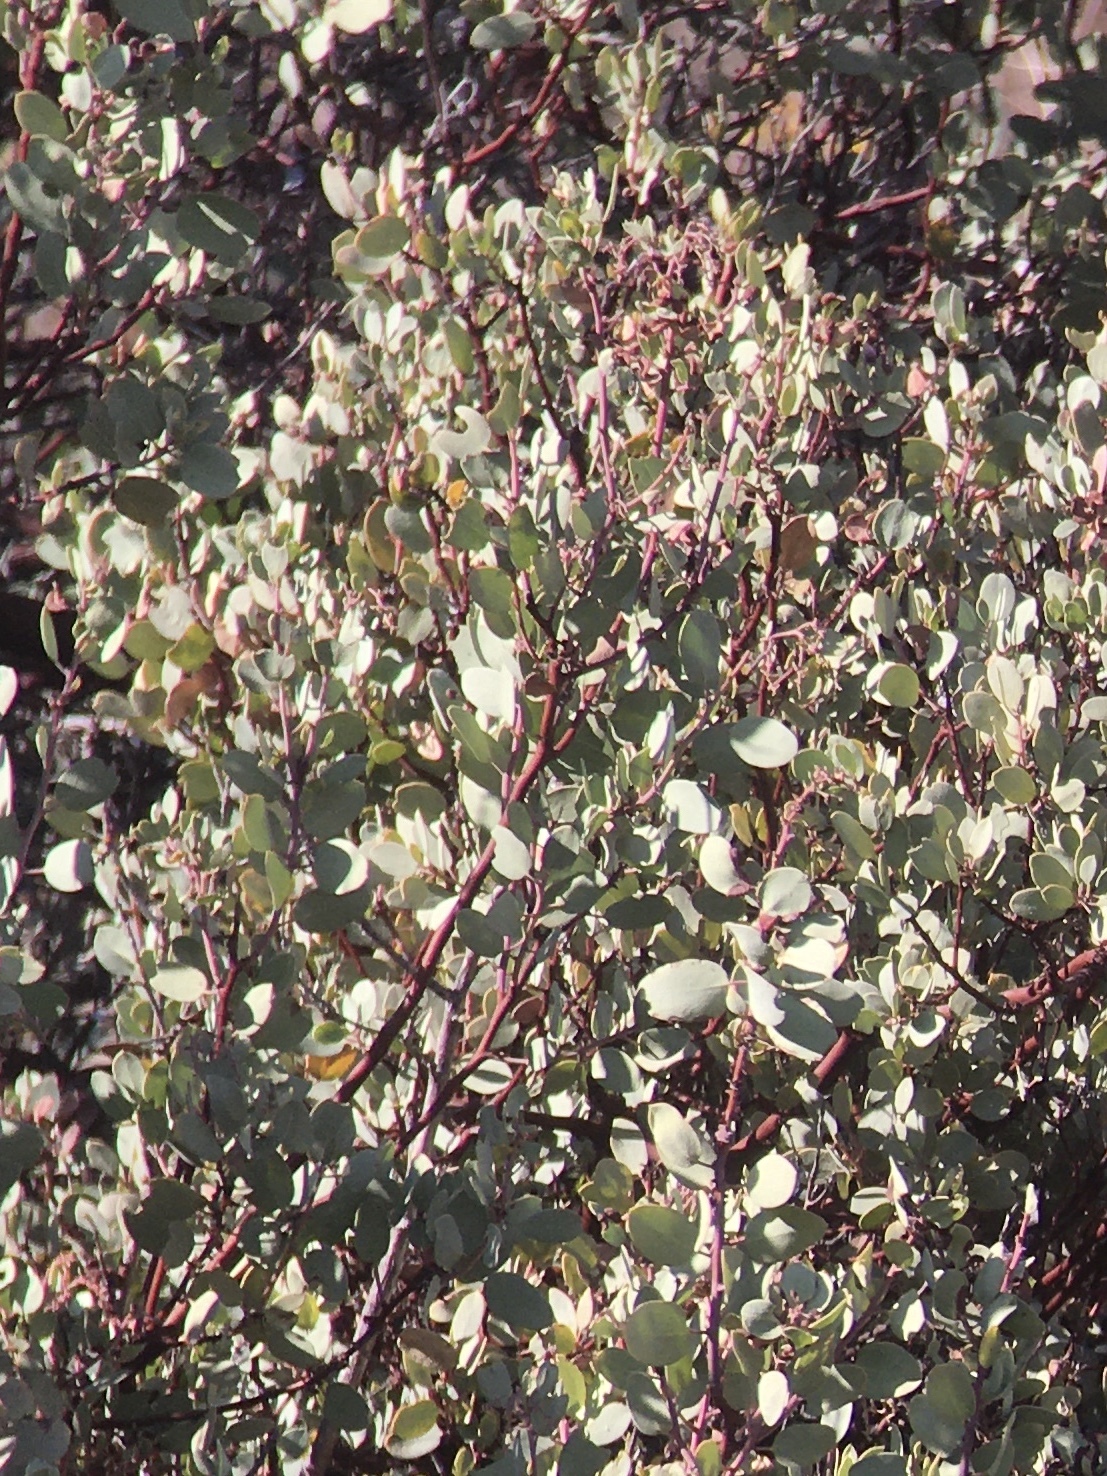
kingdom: Plantae
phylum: Tracheophyta
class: Magnoliopsida
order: Ericales
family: Ericaceae
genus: Arctostaphylos
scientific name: Arctostaphylos glauca
